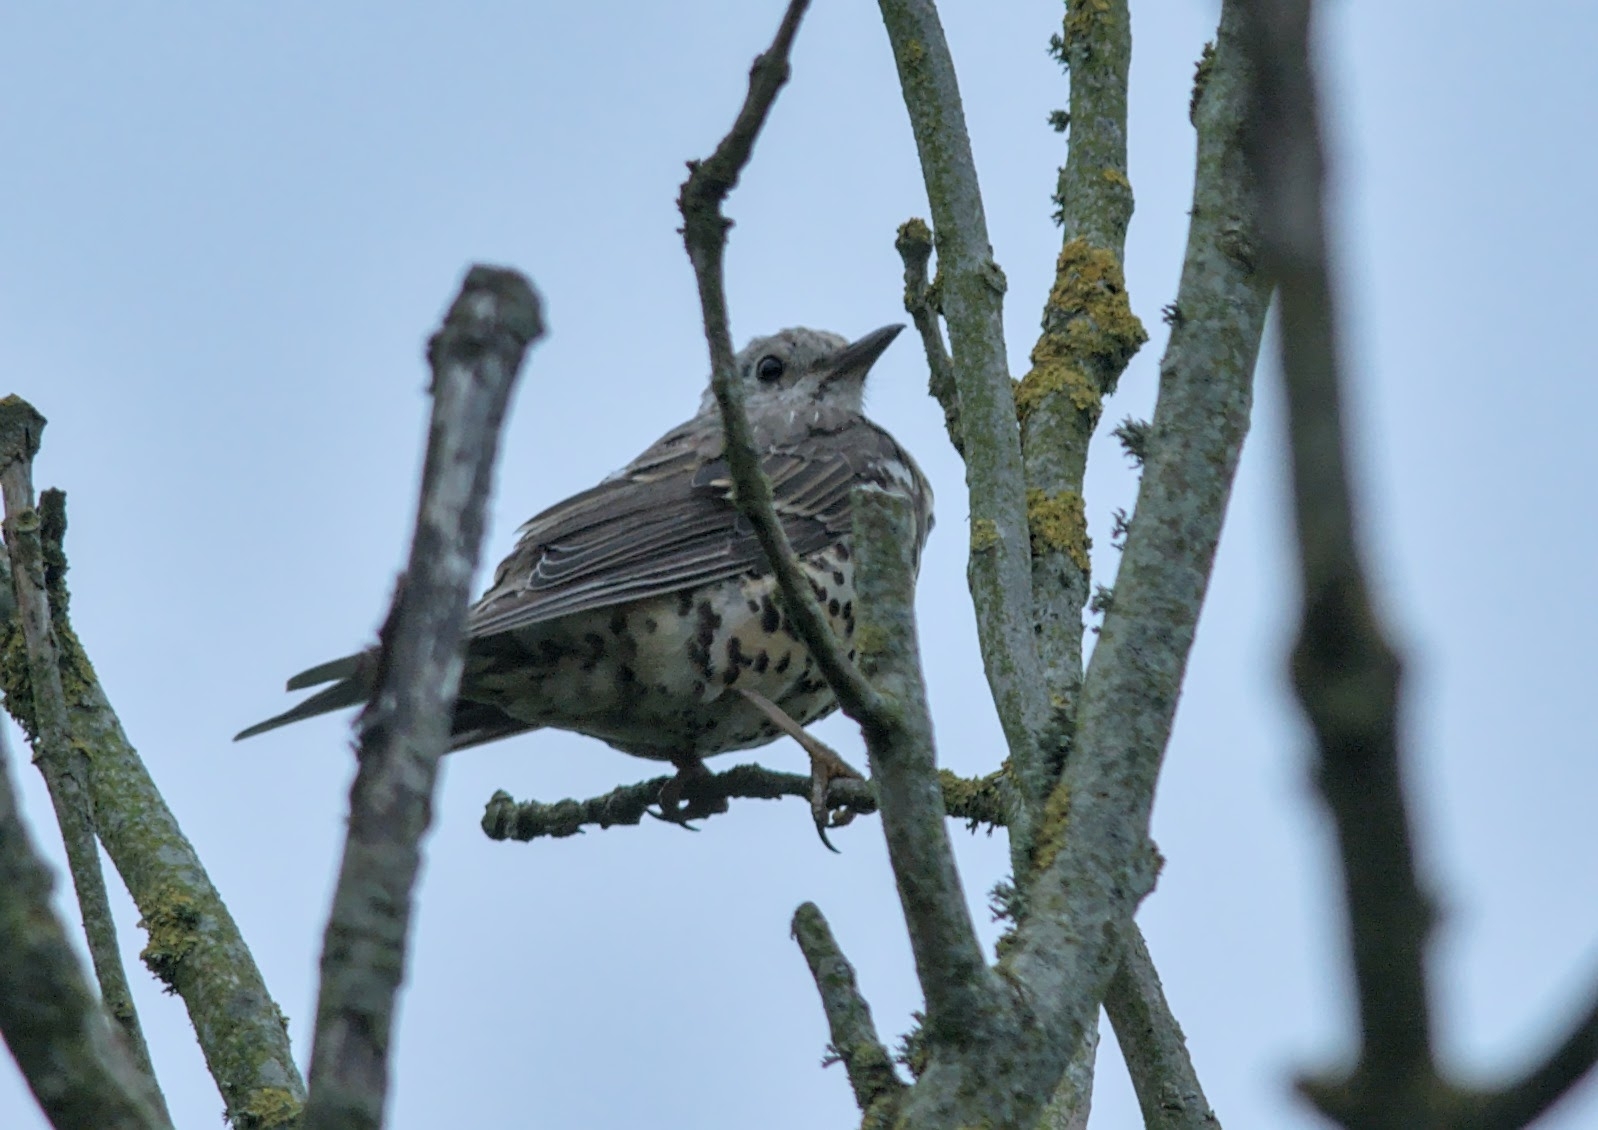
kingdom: Animalia
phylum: Chordata
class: Aves
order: Passeriformes
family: Turdidae
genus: Turdus
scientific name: Turdus viscivorus
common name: Mistle thrush
